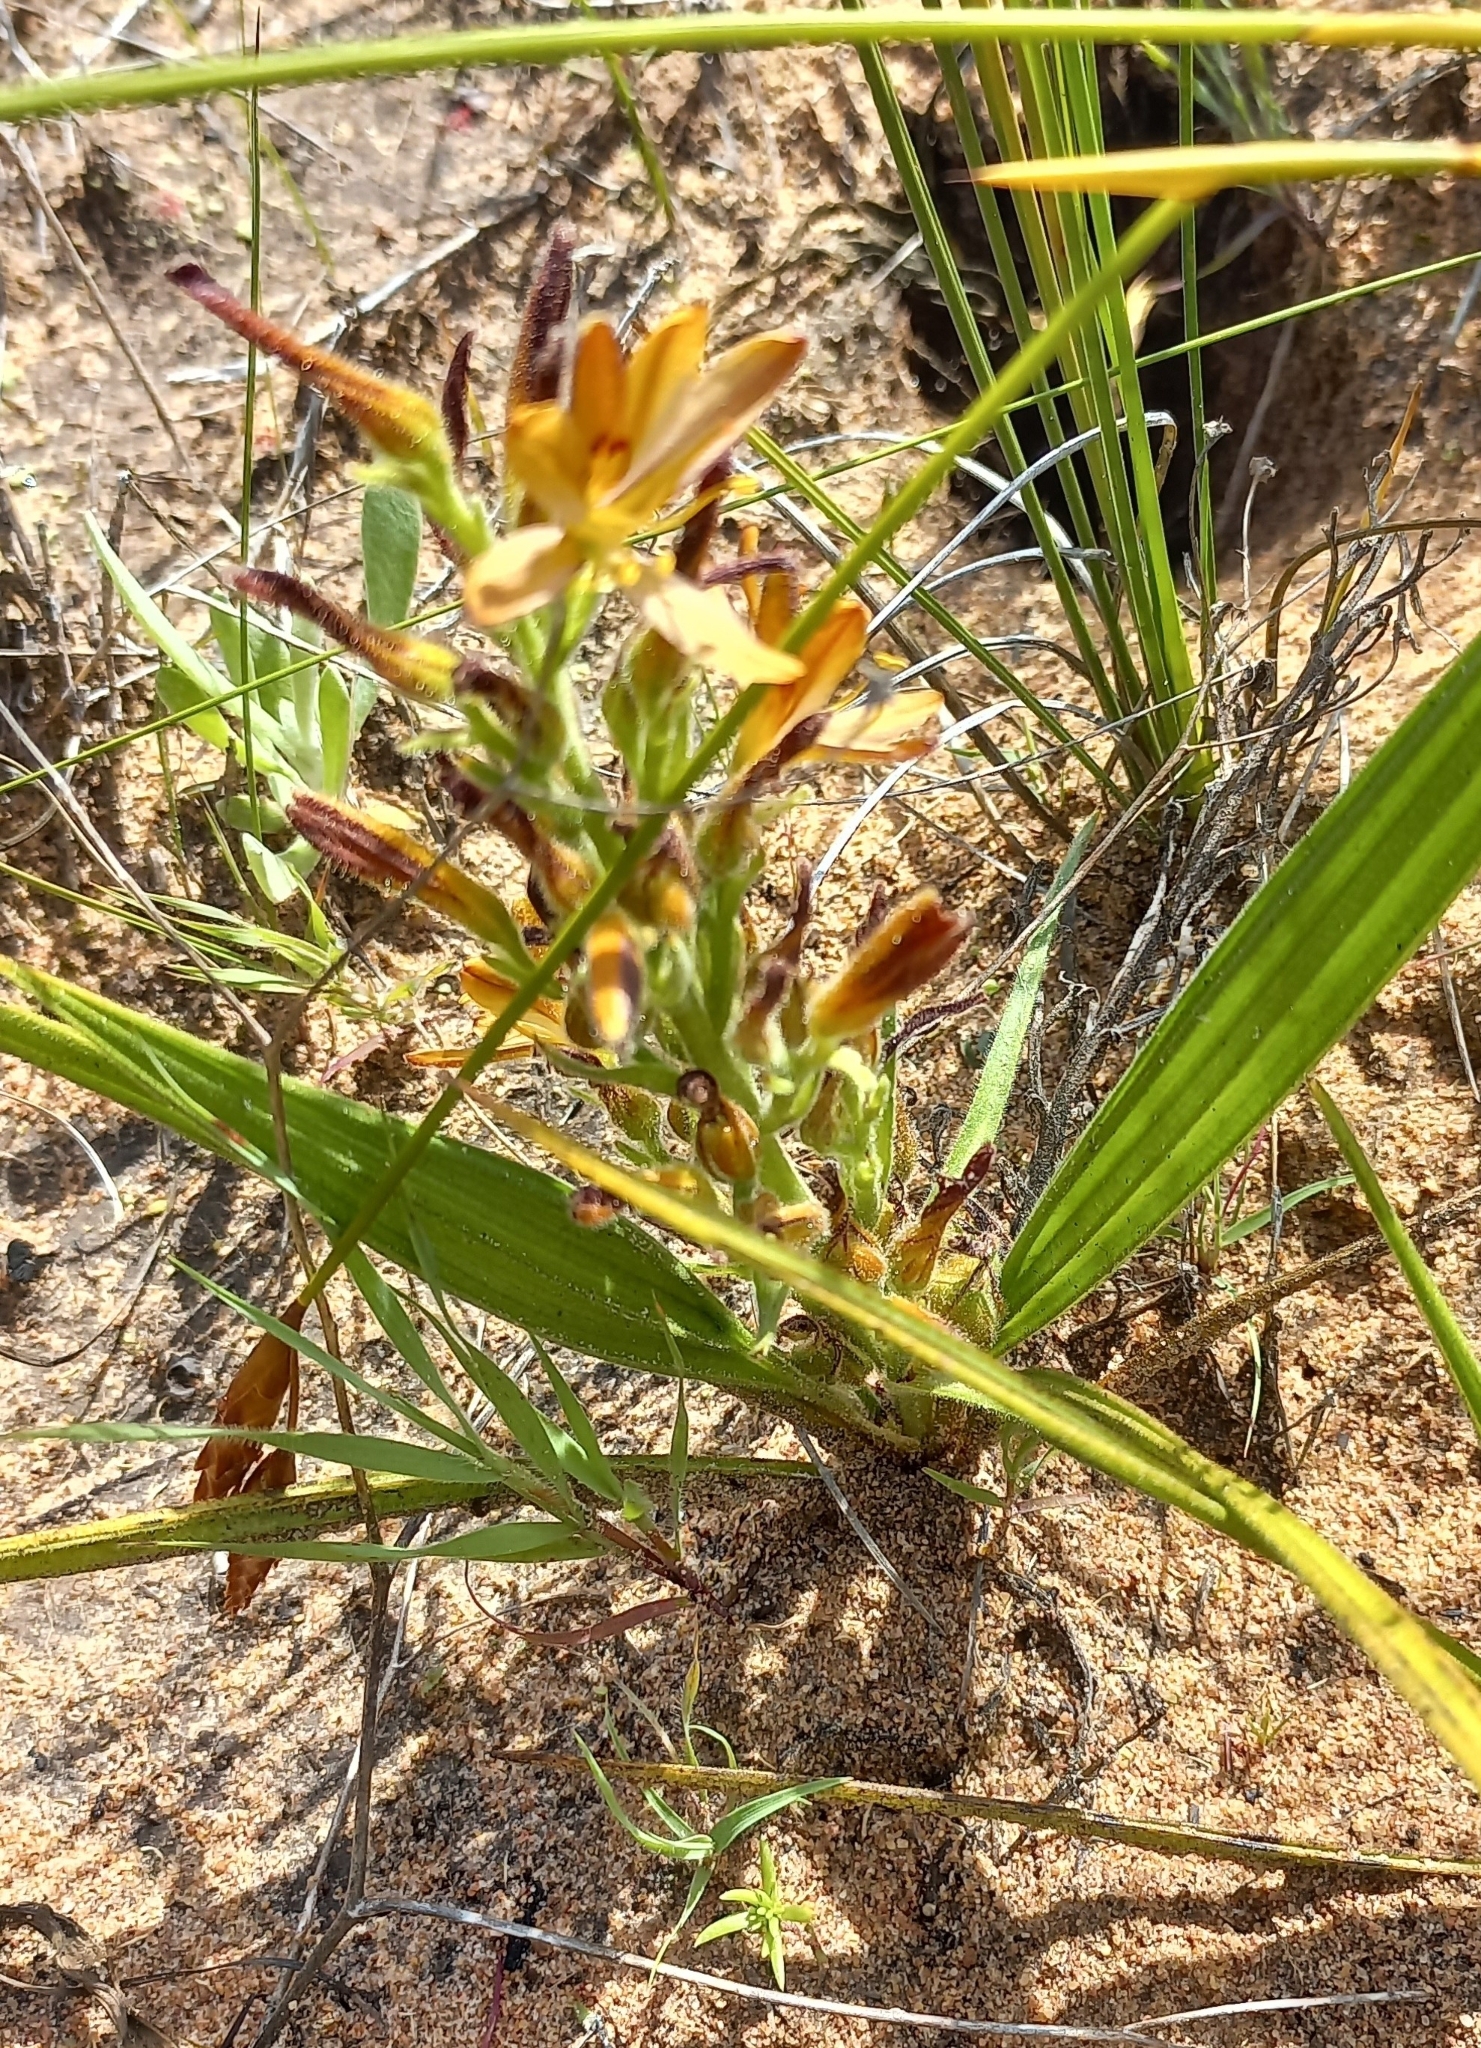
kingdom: Plantae
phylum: Tracheophyta
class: Liliopsida
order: Commelinales
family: Haemodoraceae
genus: Wachendorfia
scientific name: Wachendorfia multiflora
